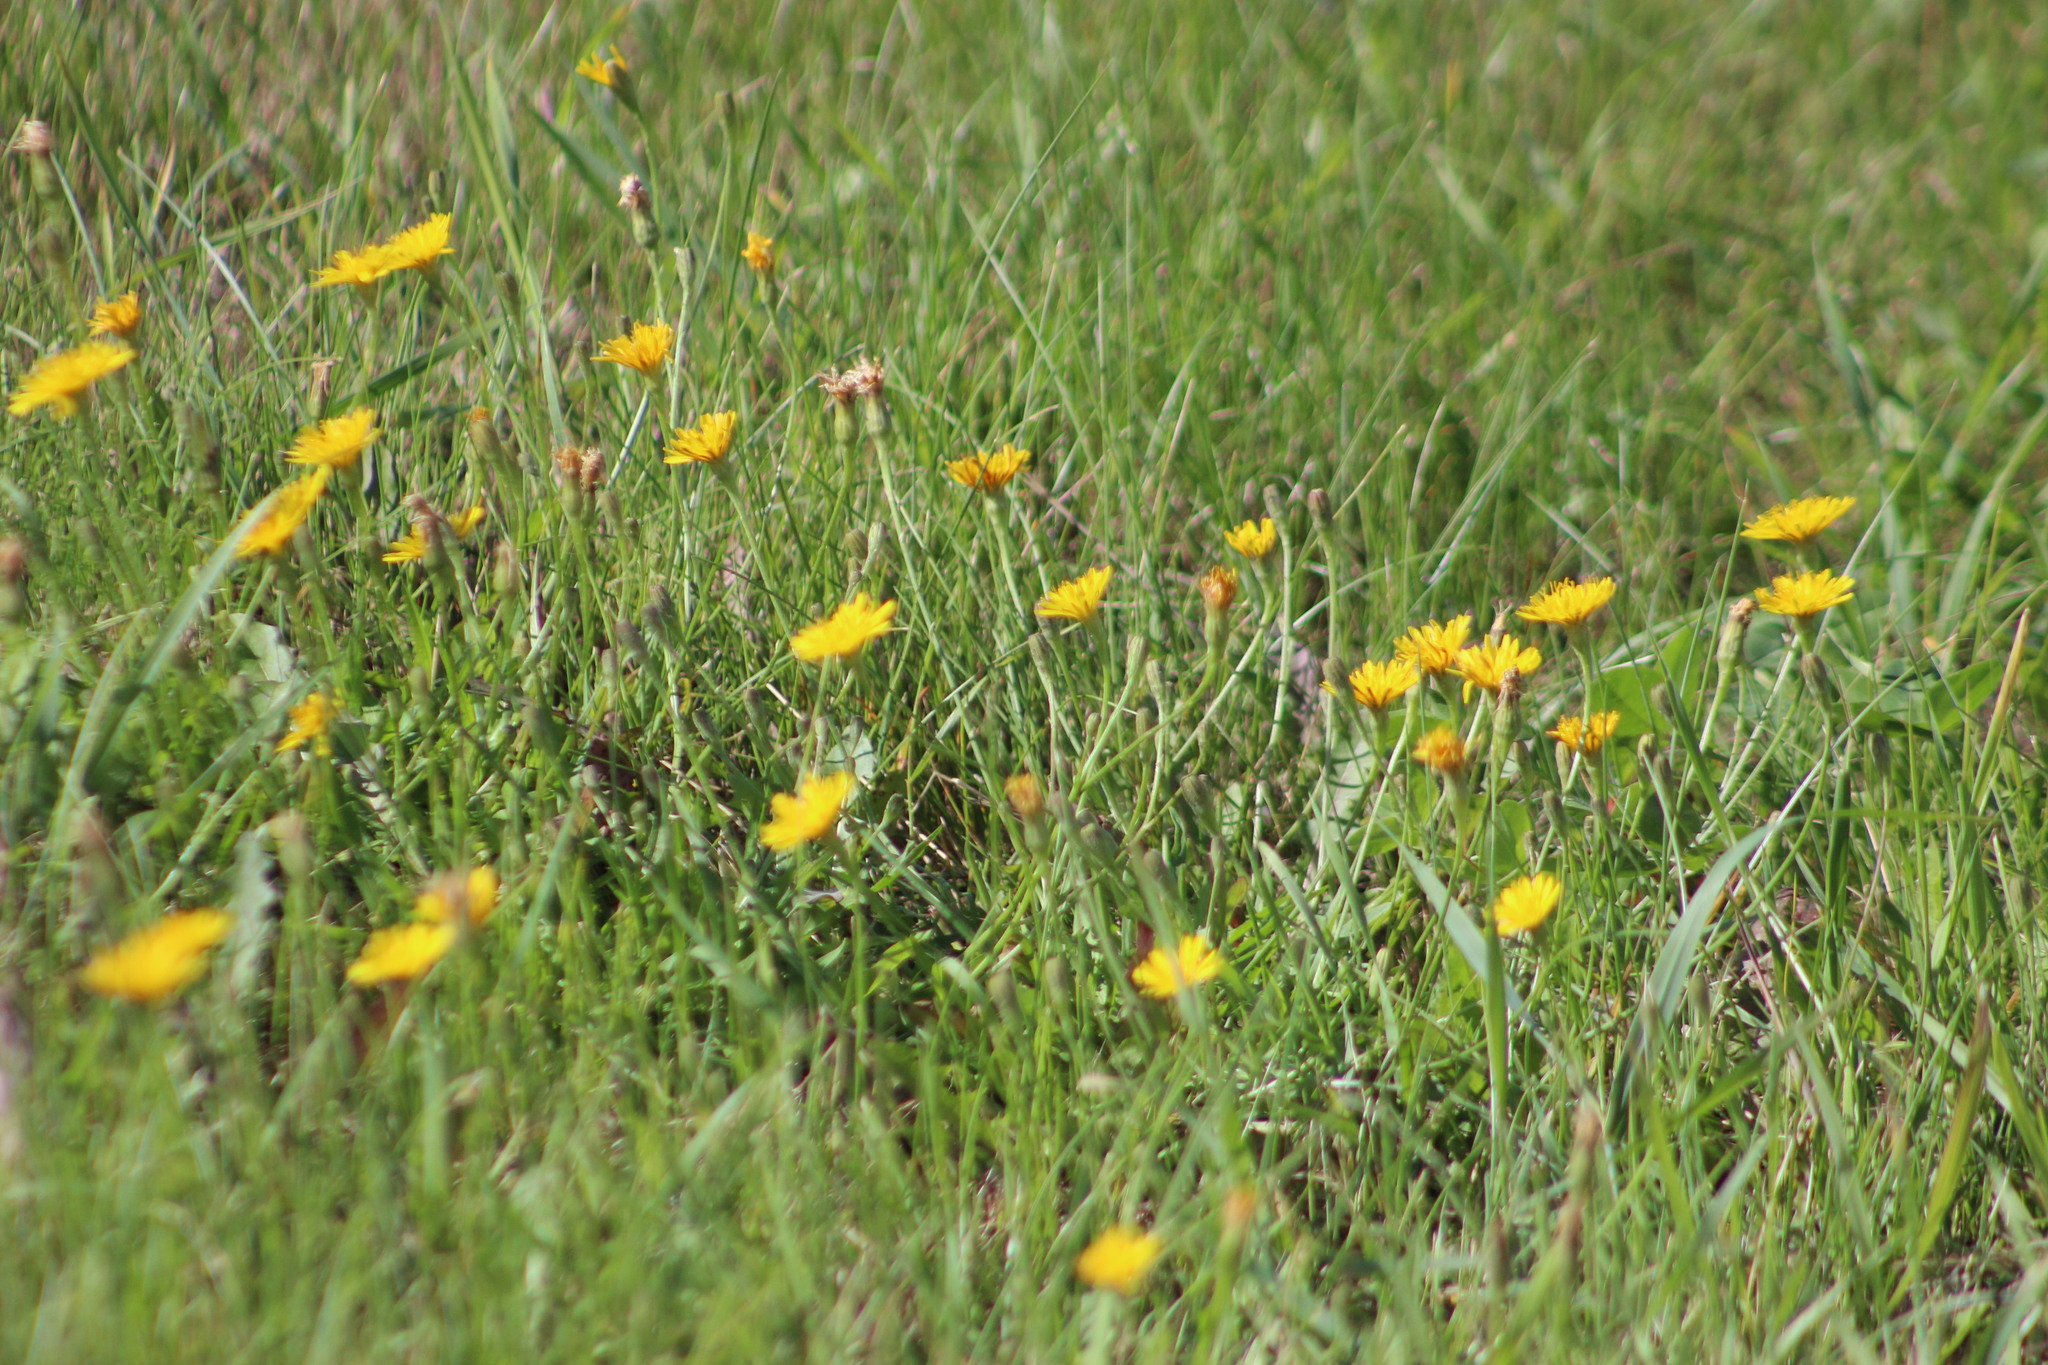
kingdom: Plantae
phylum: Tracheophyta
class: Magnoliopsida
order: Asterales
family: Asteraceae
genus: Scorzoneroides
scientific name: Scorzoneroides autumnalis
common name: Autumn hawkbit
